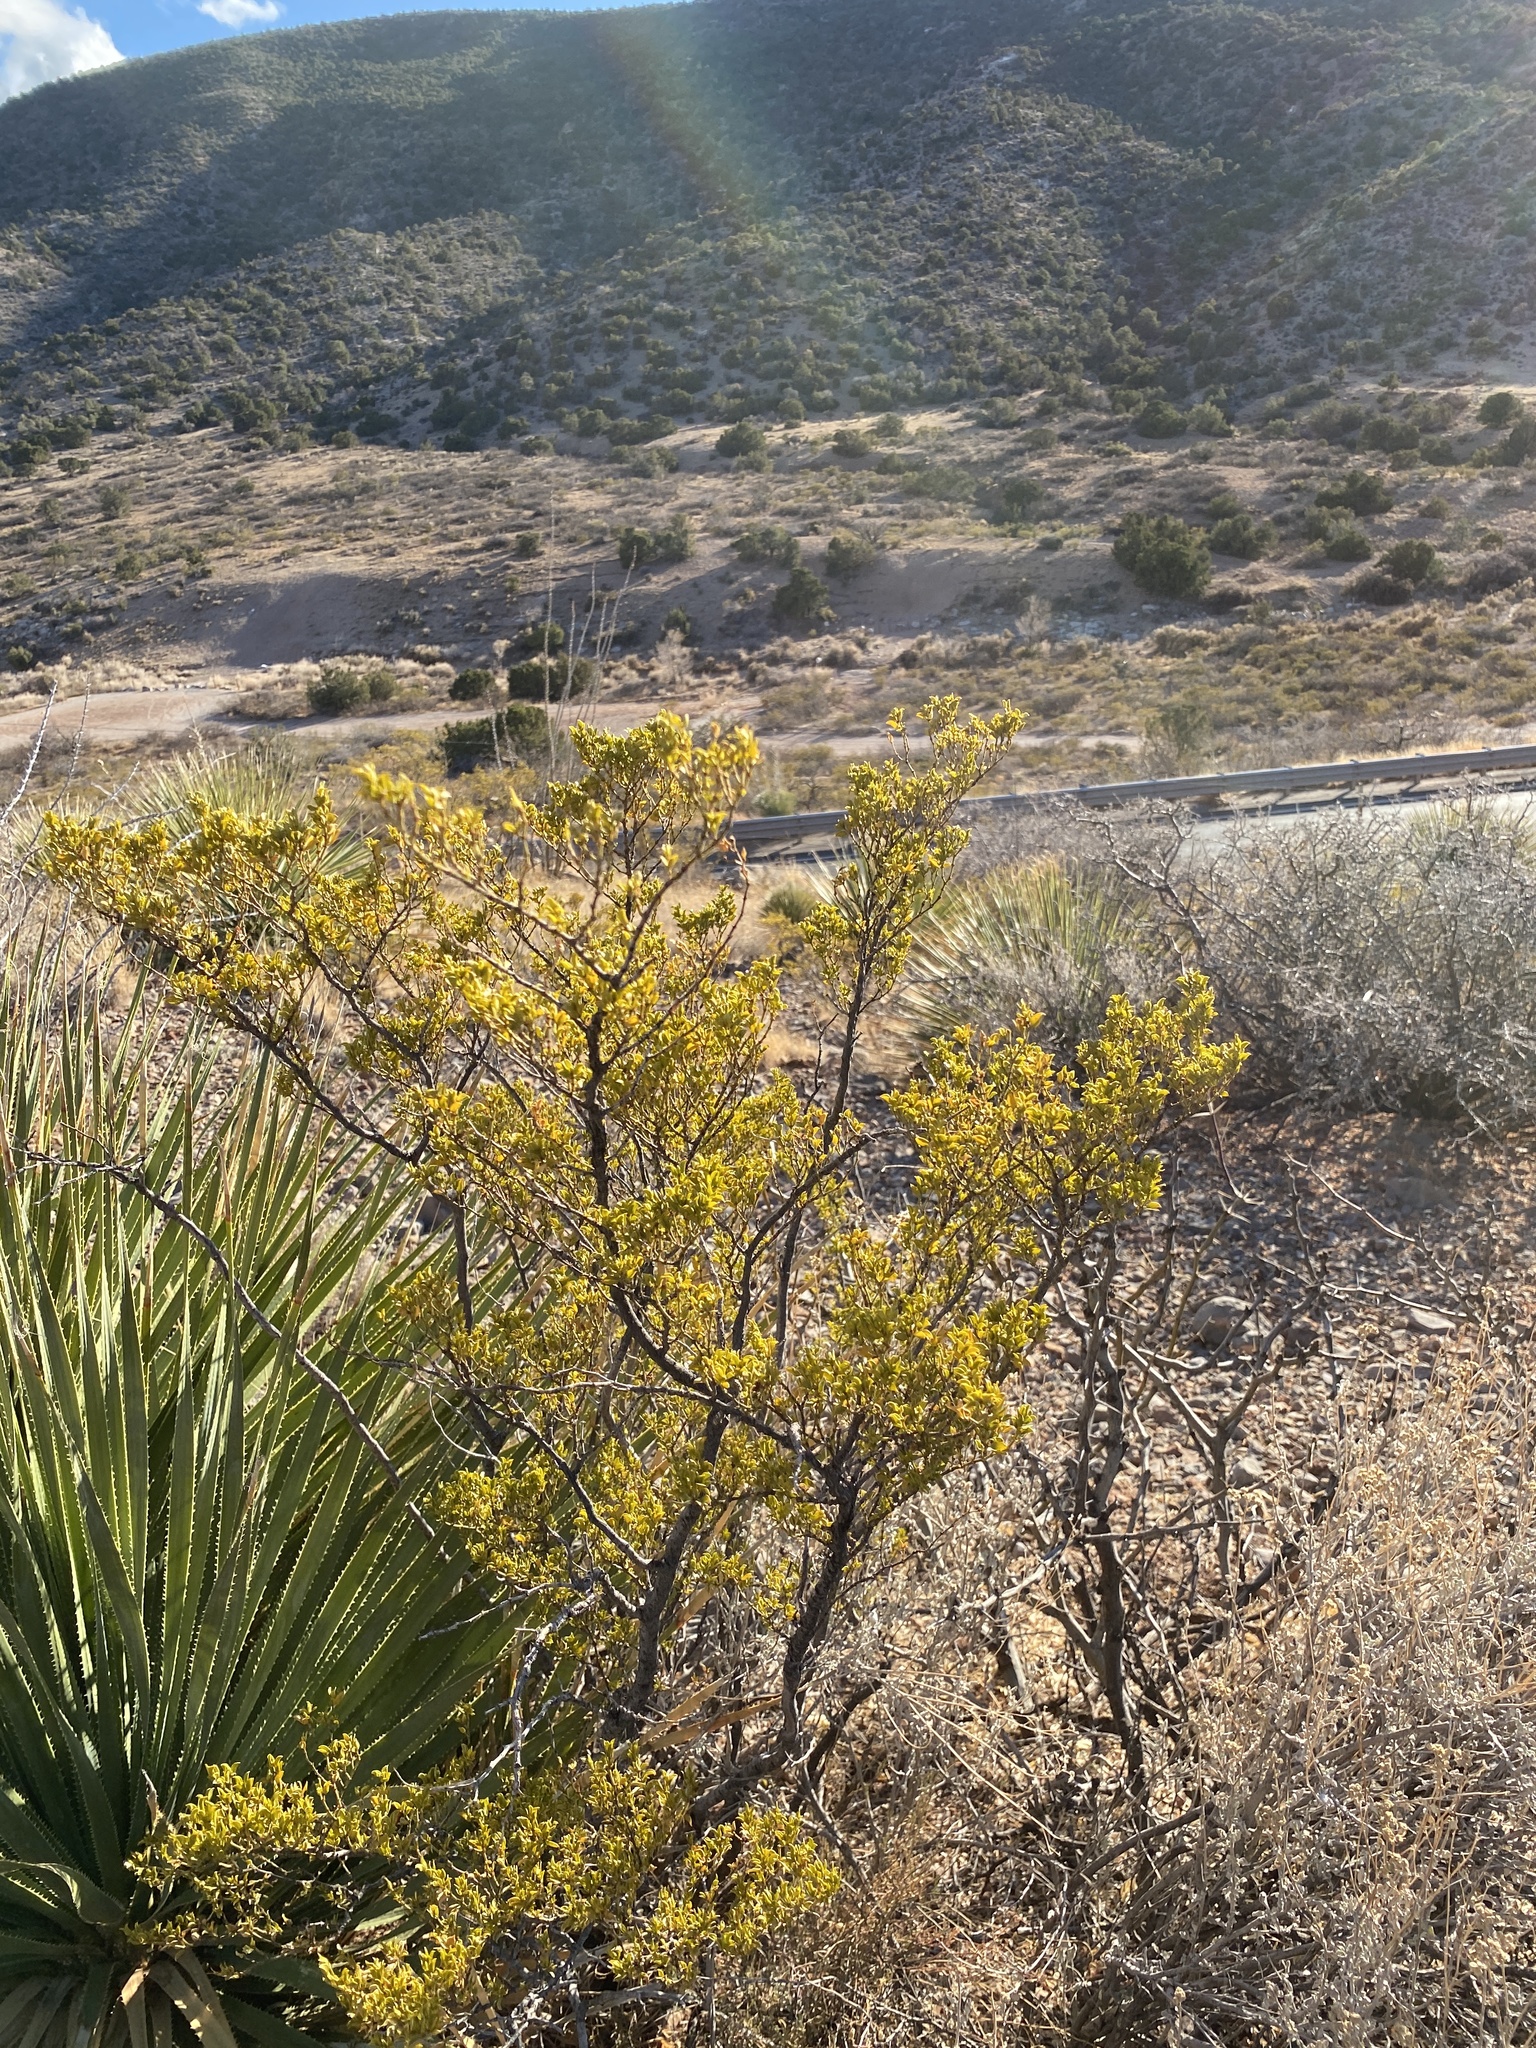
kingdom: Plantae
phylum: Tracheophyta
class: Magnoliopsida
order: Zygophyllales
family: Zygophyllaceae
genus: Larrea
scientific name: Larrea tridentata
